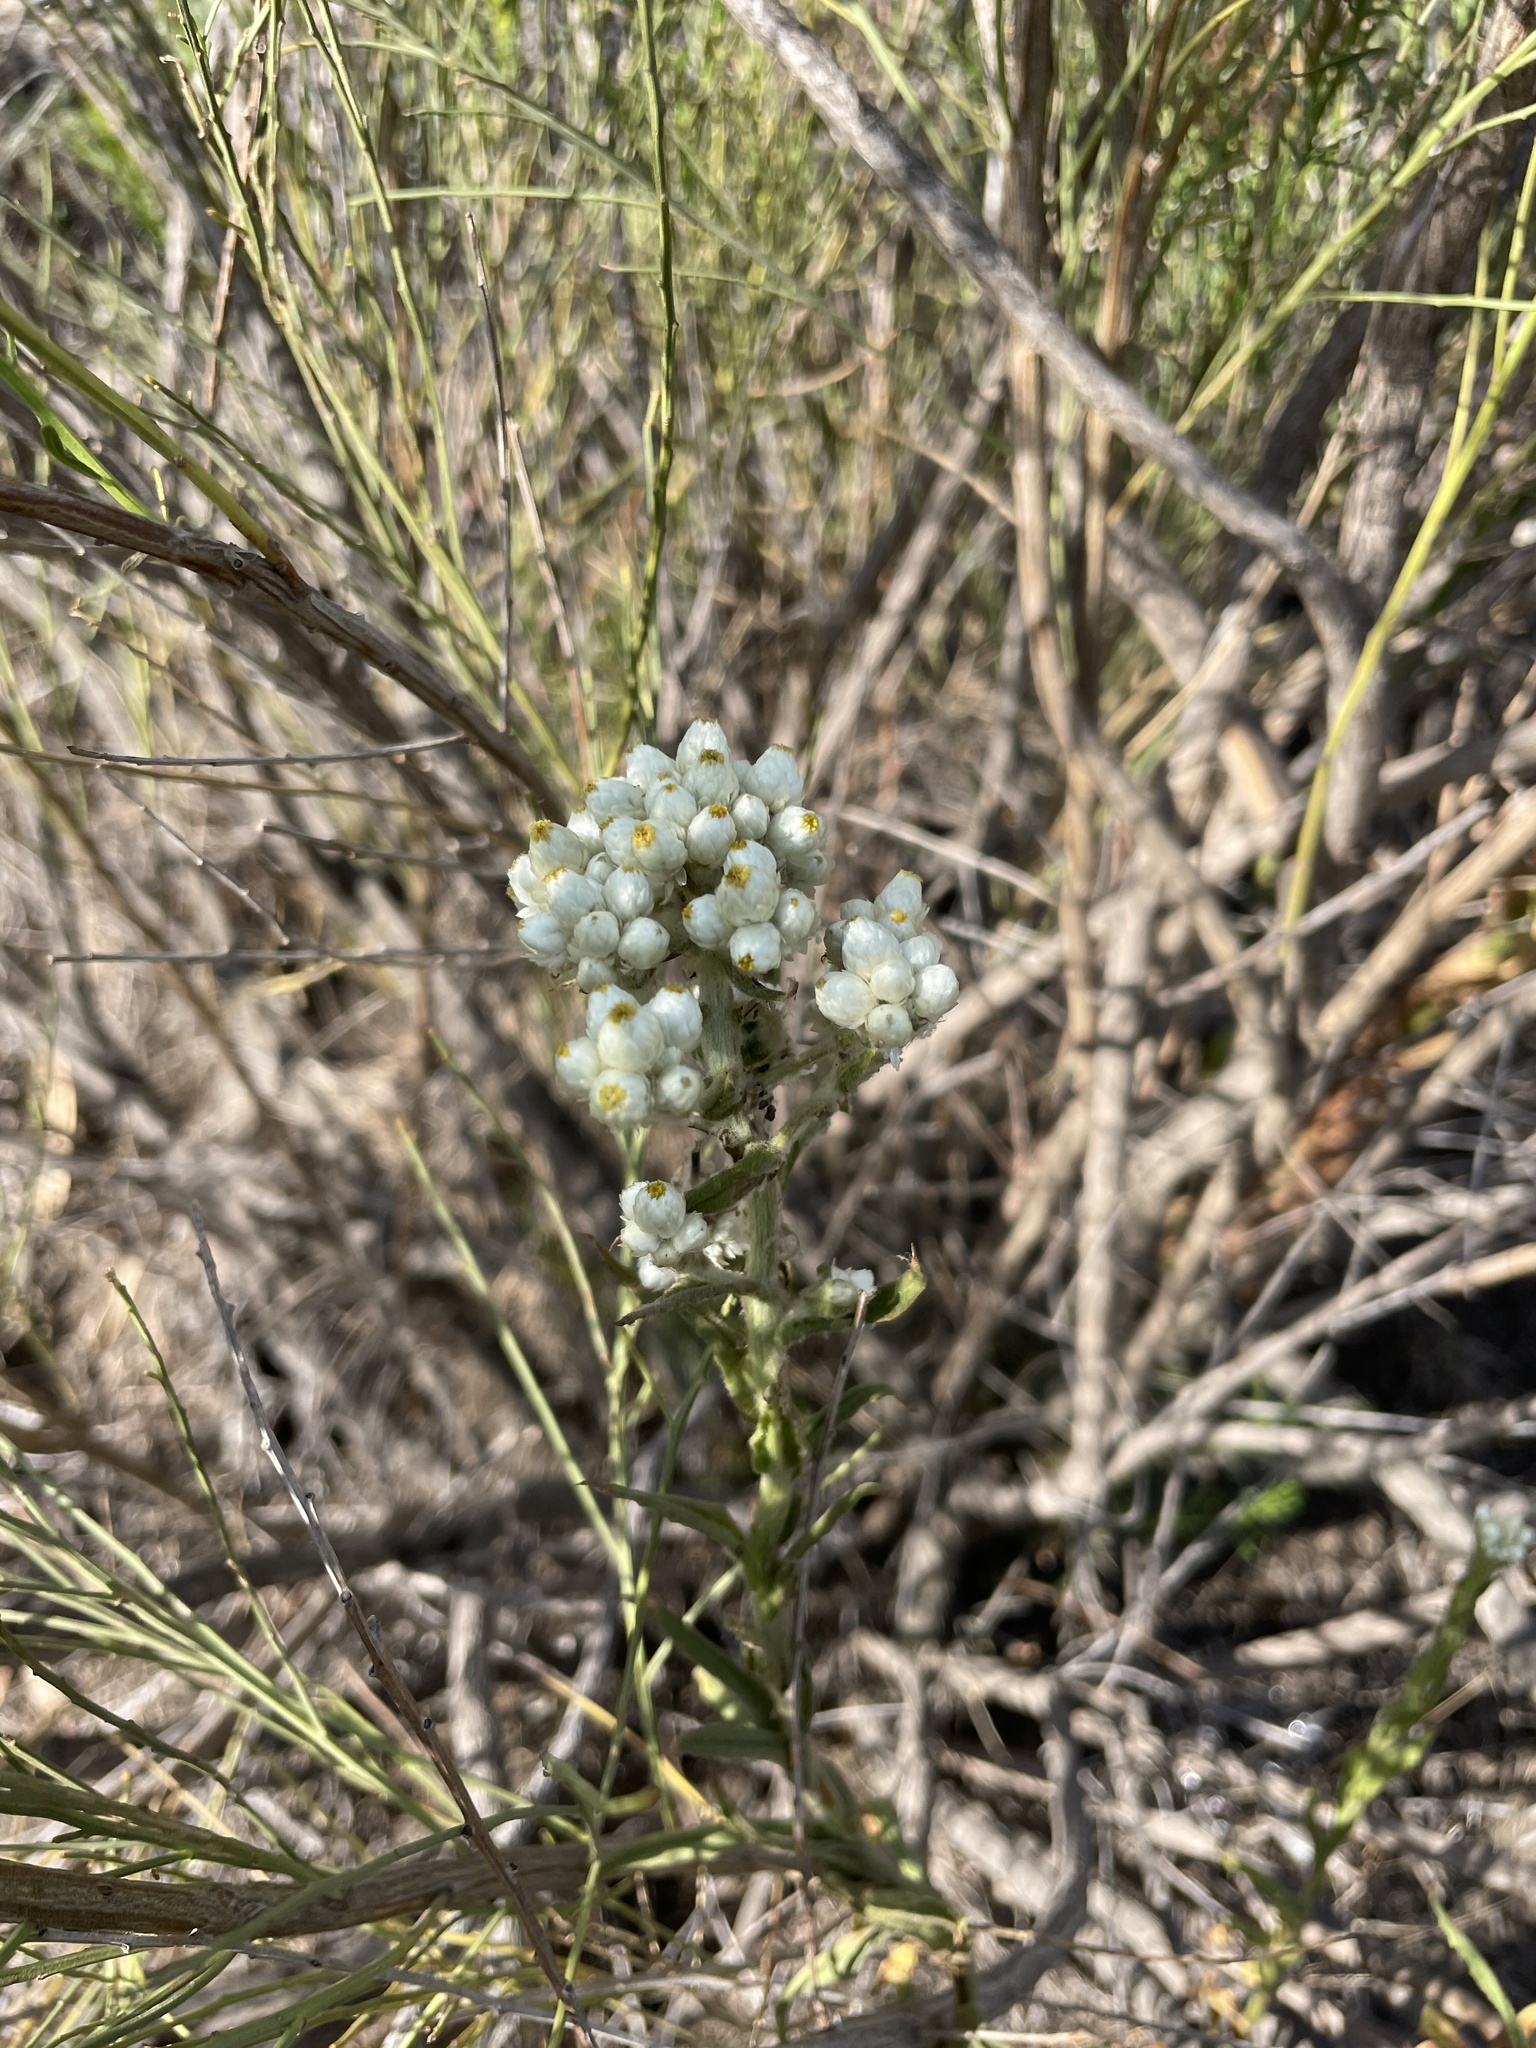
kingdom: Plantae
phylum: Tracheophyta
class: Magnoliopsida
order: Asterales
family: Asteraceae
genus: Pseudognaphalium
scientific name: Pseudognaphalium californicum
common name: California rabbit-tobacco
